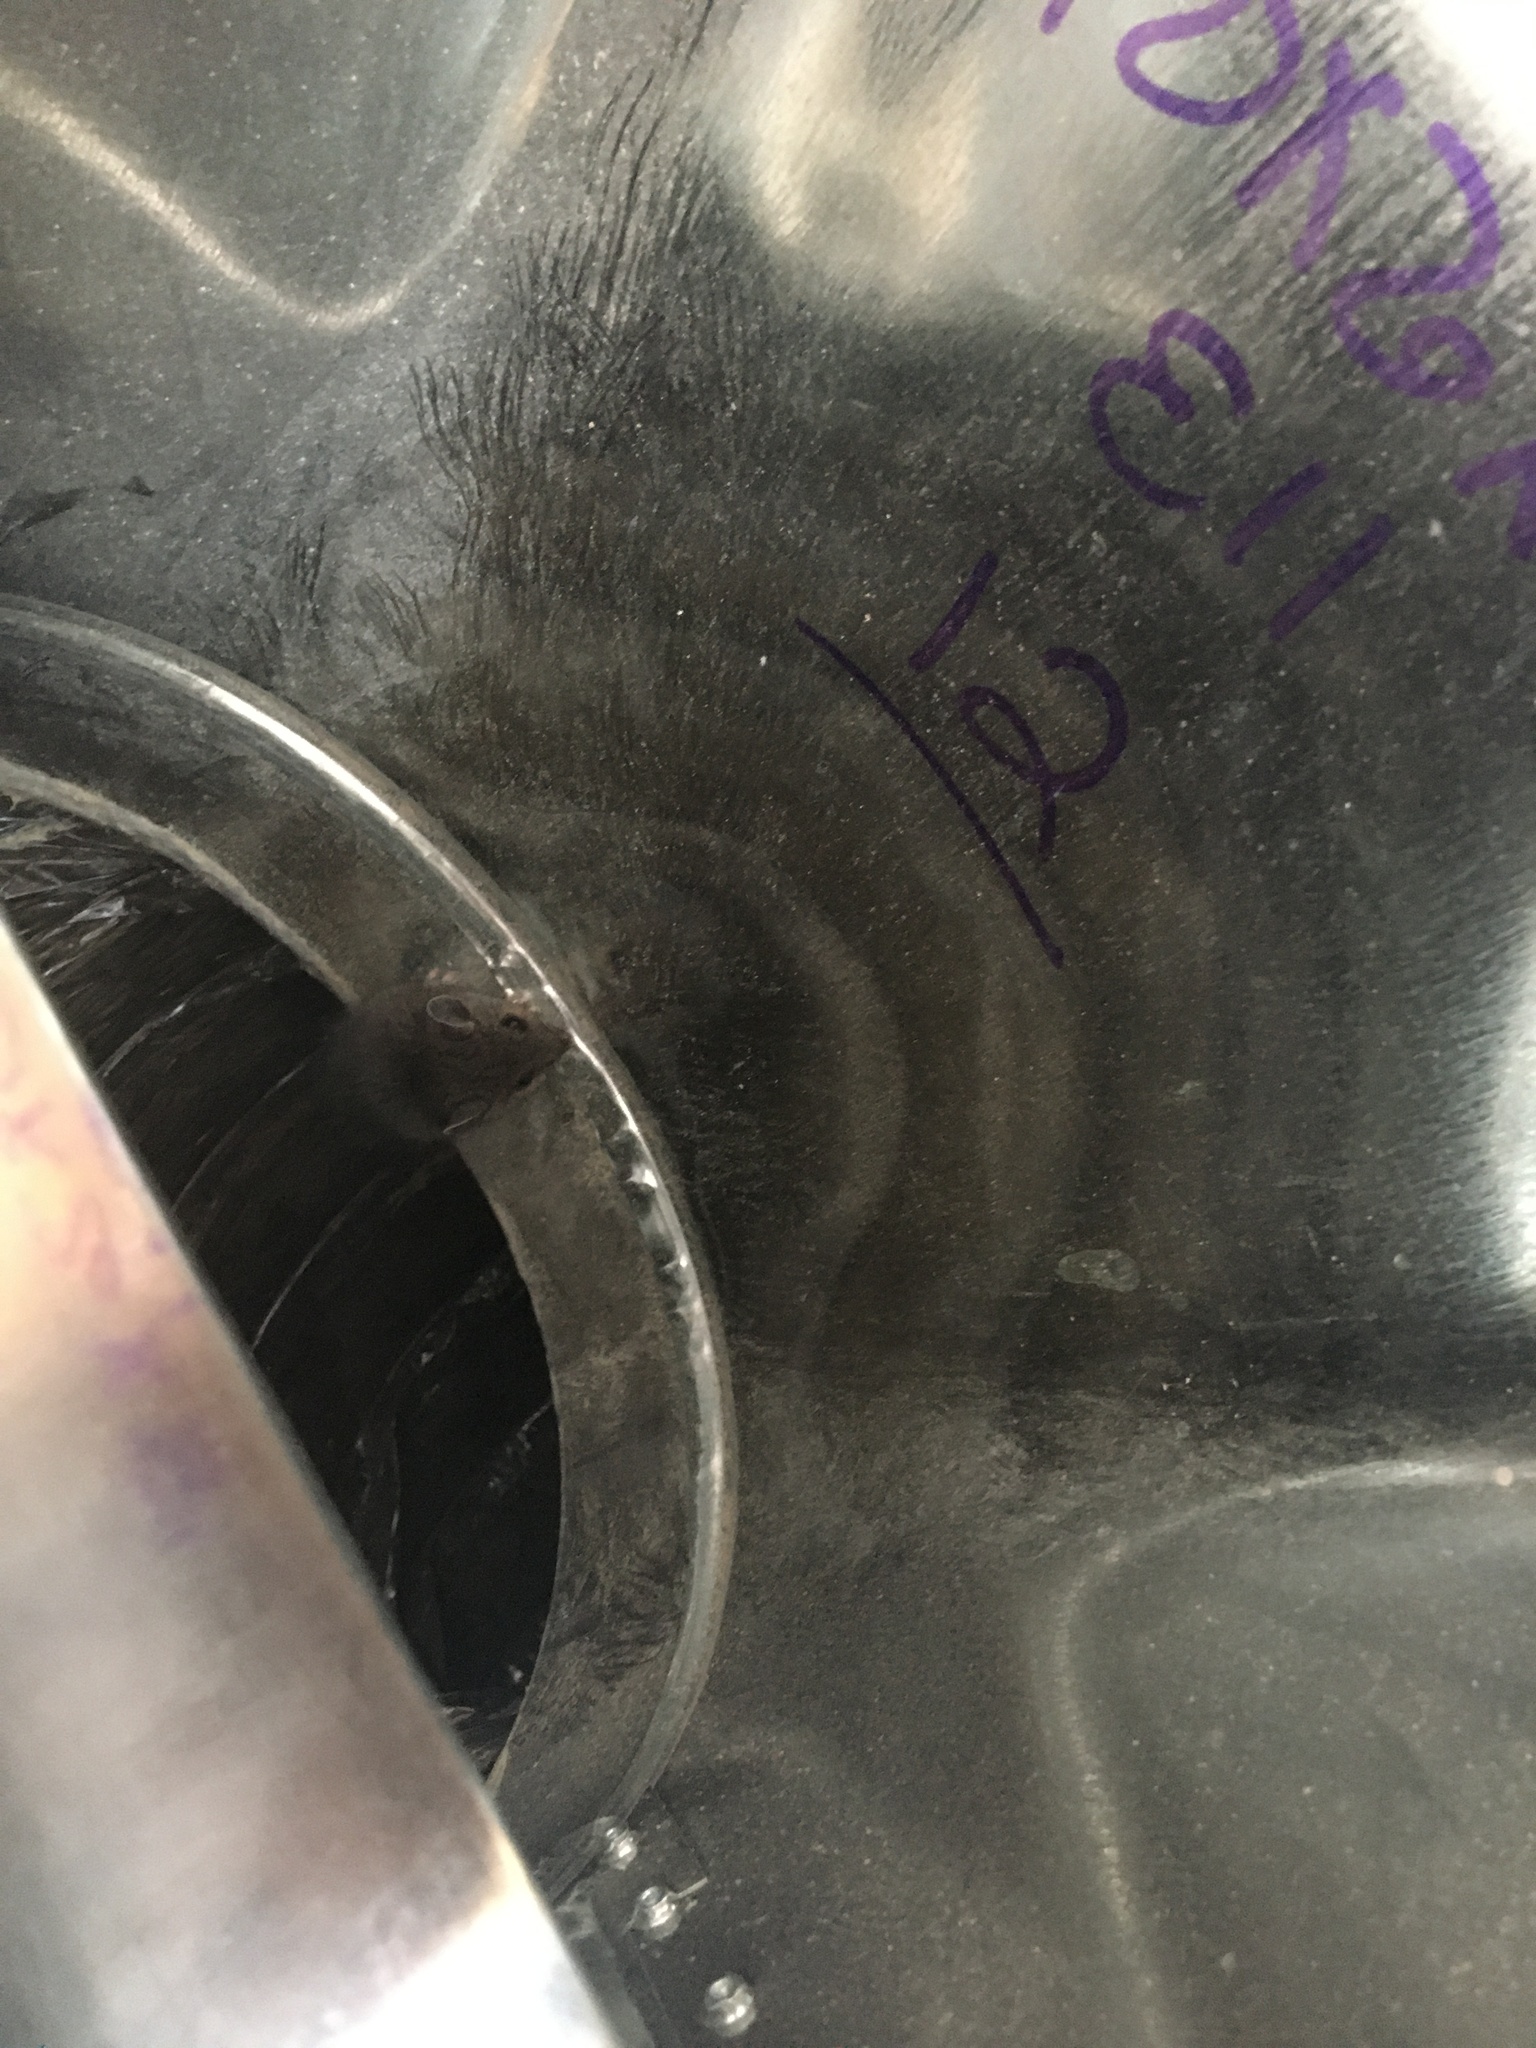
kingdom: Animalia
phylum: Chordata
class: Mammalia
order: Rodentia
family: Cricetidae
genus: Peromyscus
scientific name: Peromyscus leucopus
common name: White-footed deermouse
